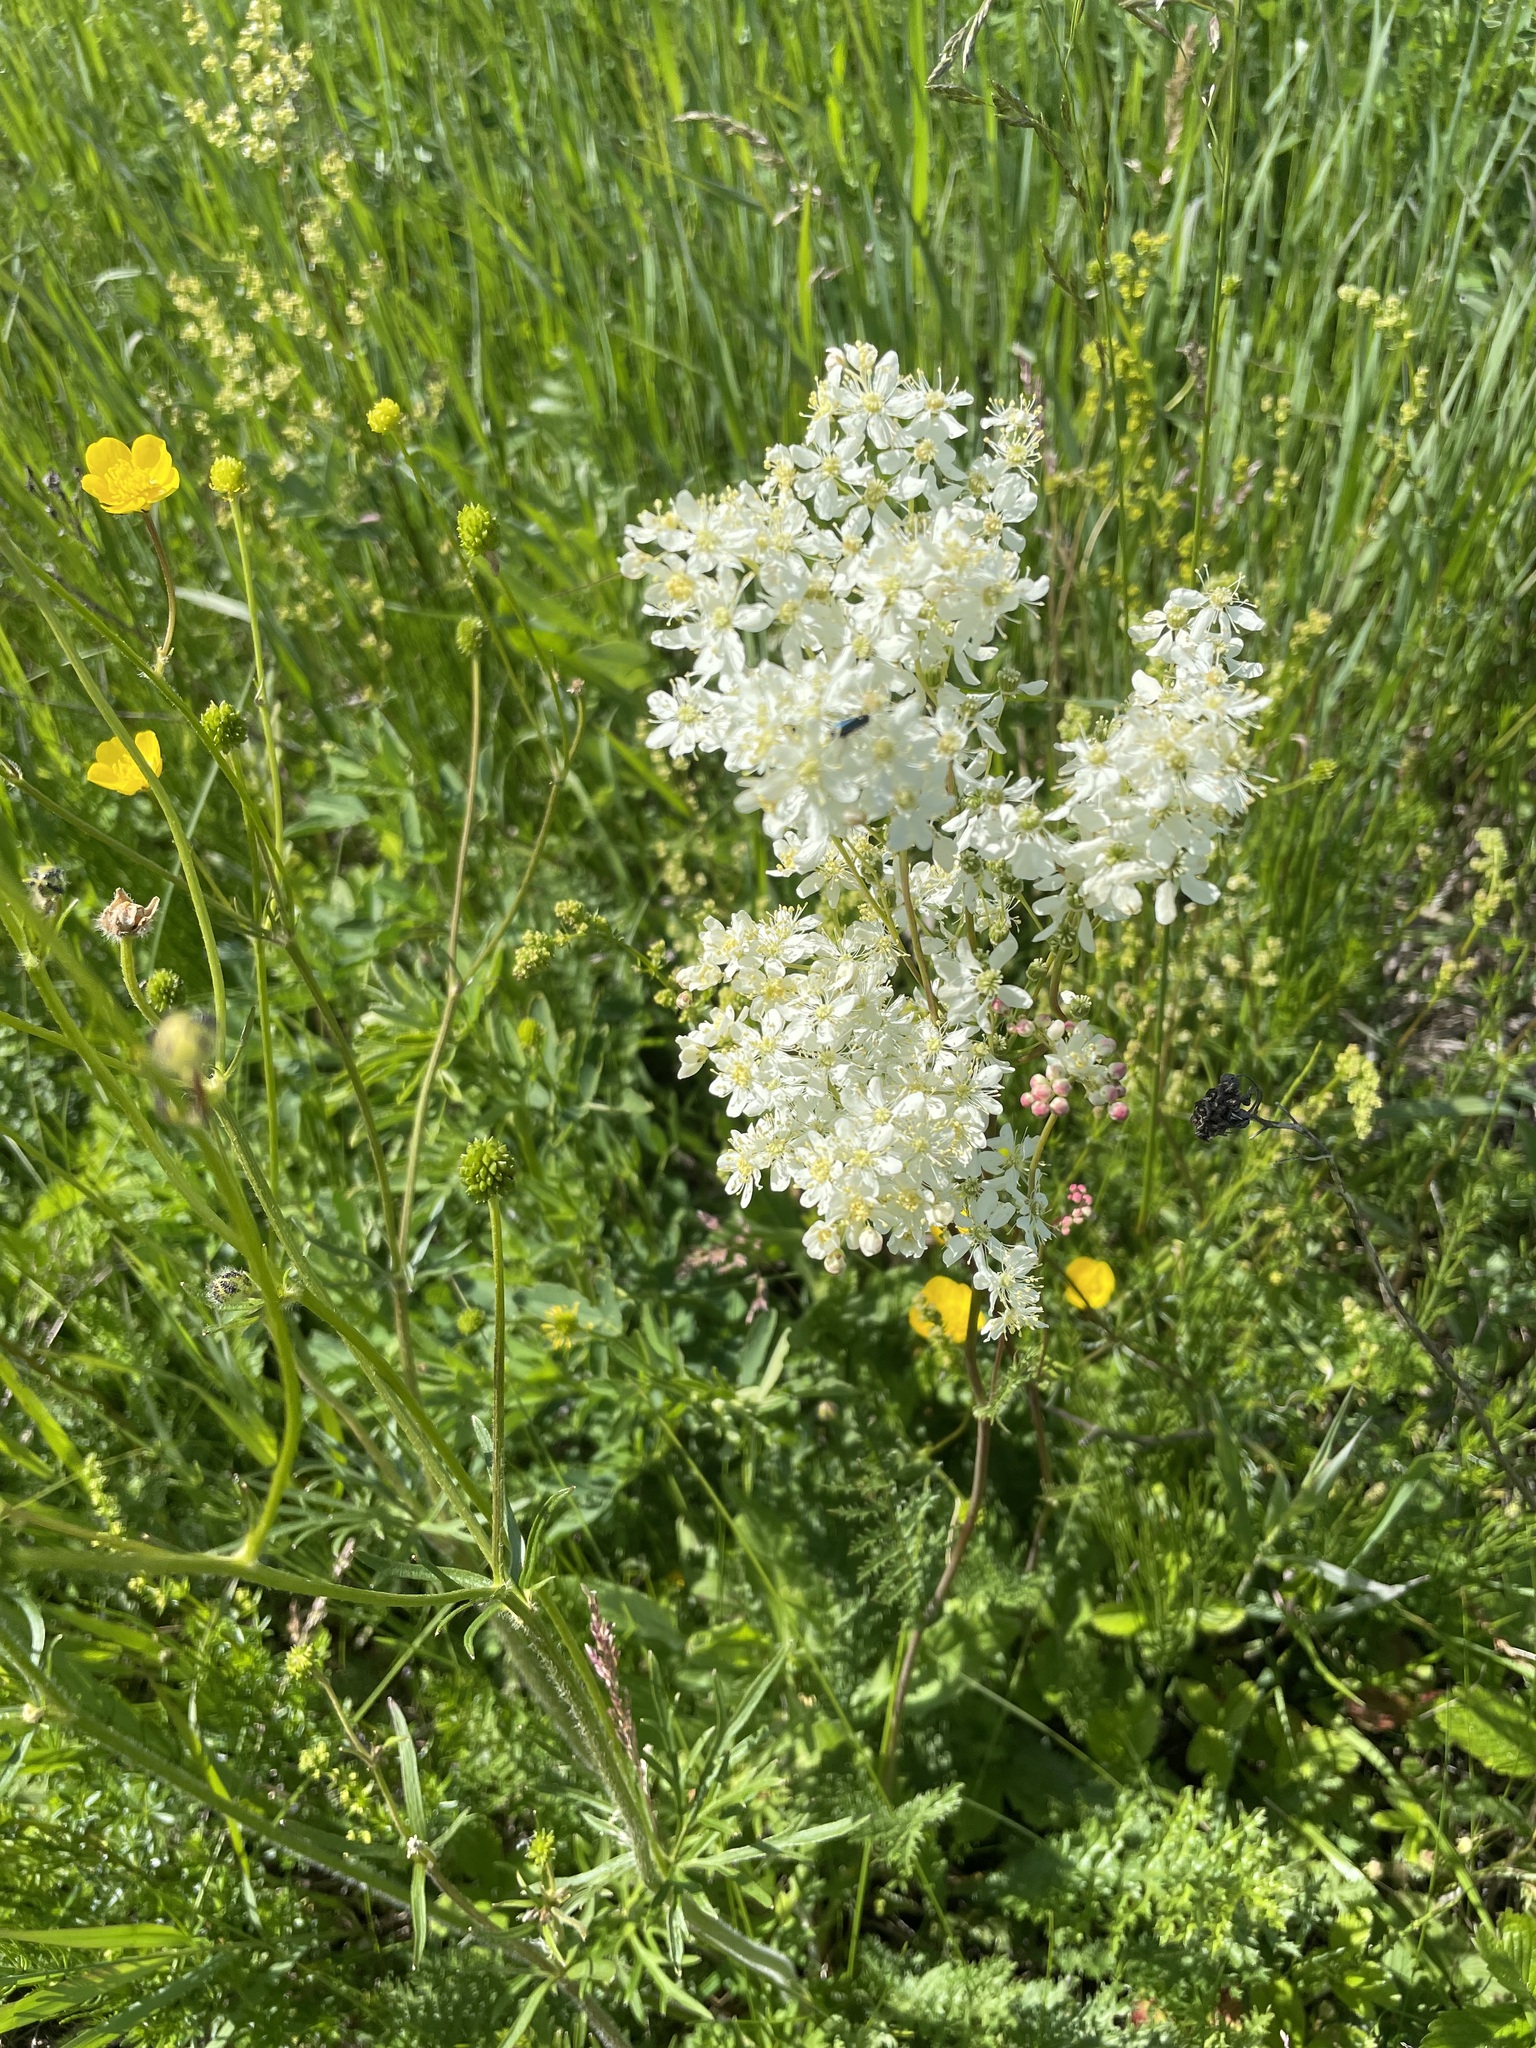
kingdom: Plantae
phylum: Tracheophyta
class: Magnoliopsida
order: Rosales
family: Rosaceae
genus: Filipendula
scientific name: Filipendula vulgaris
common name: Dropwort
